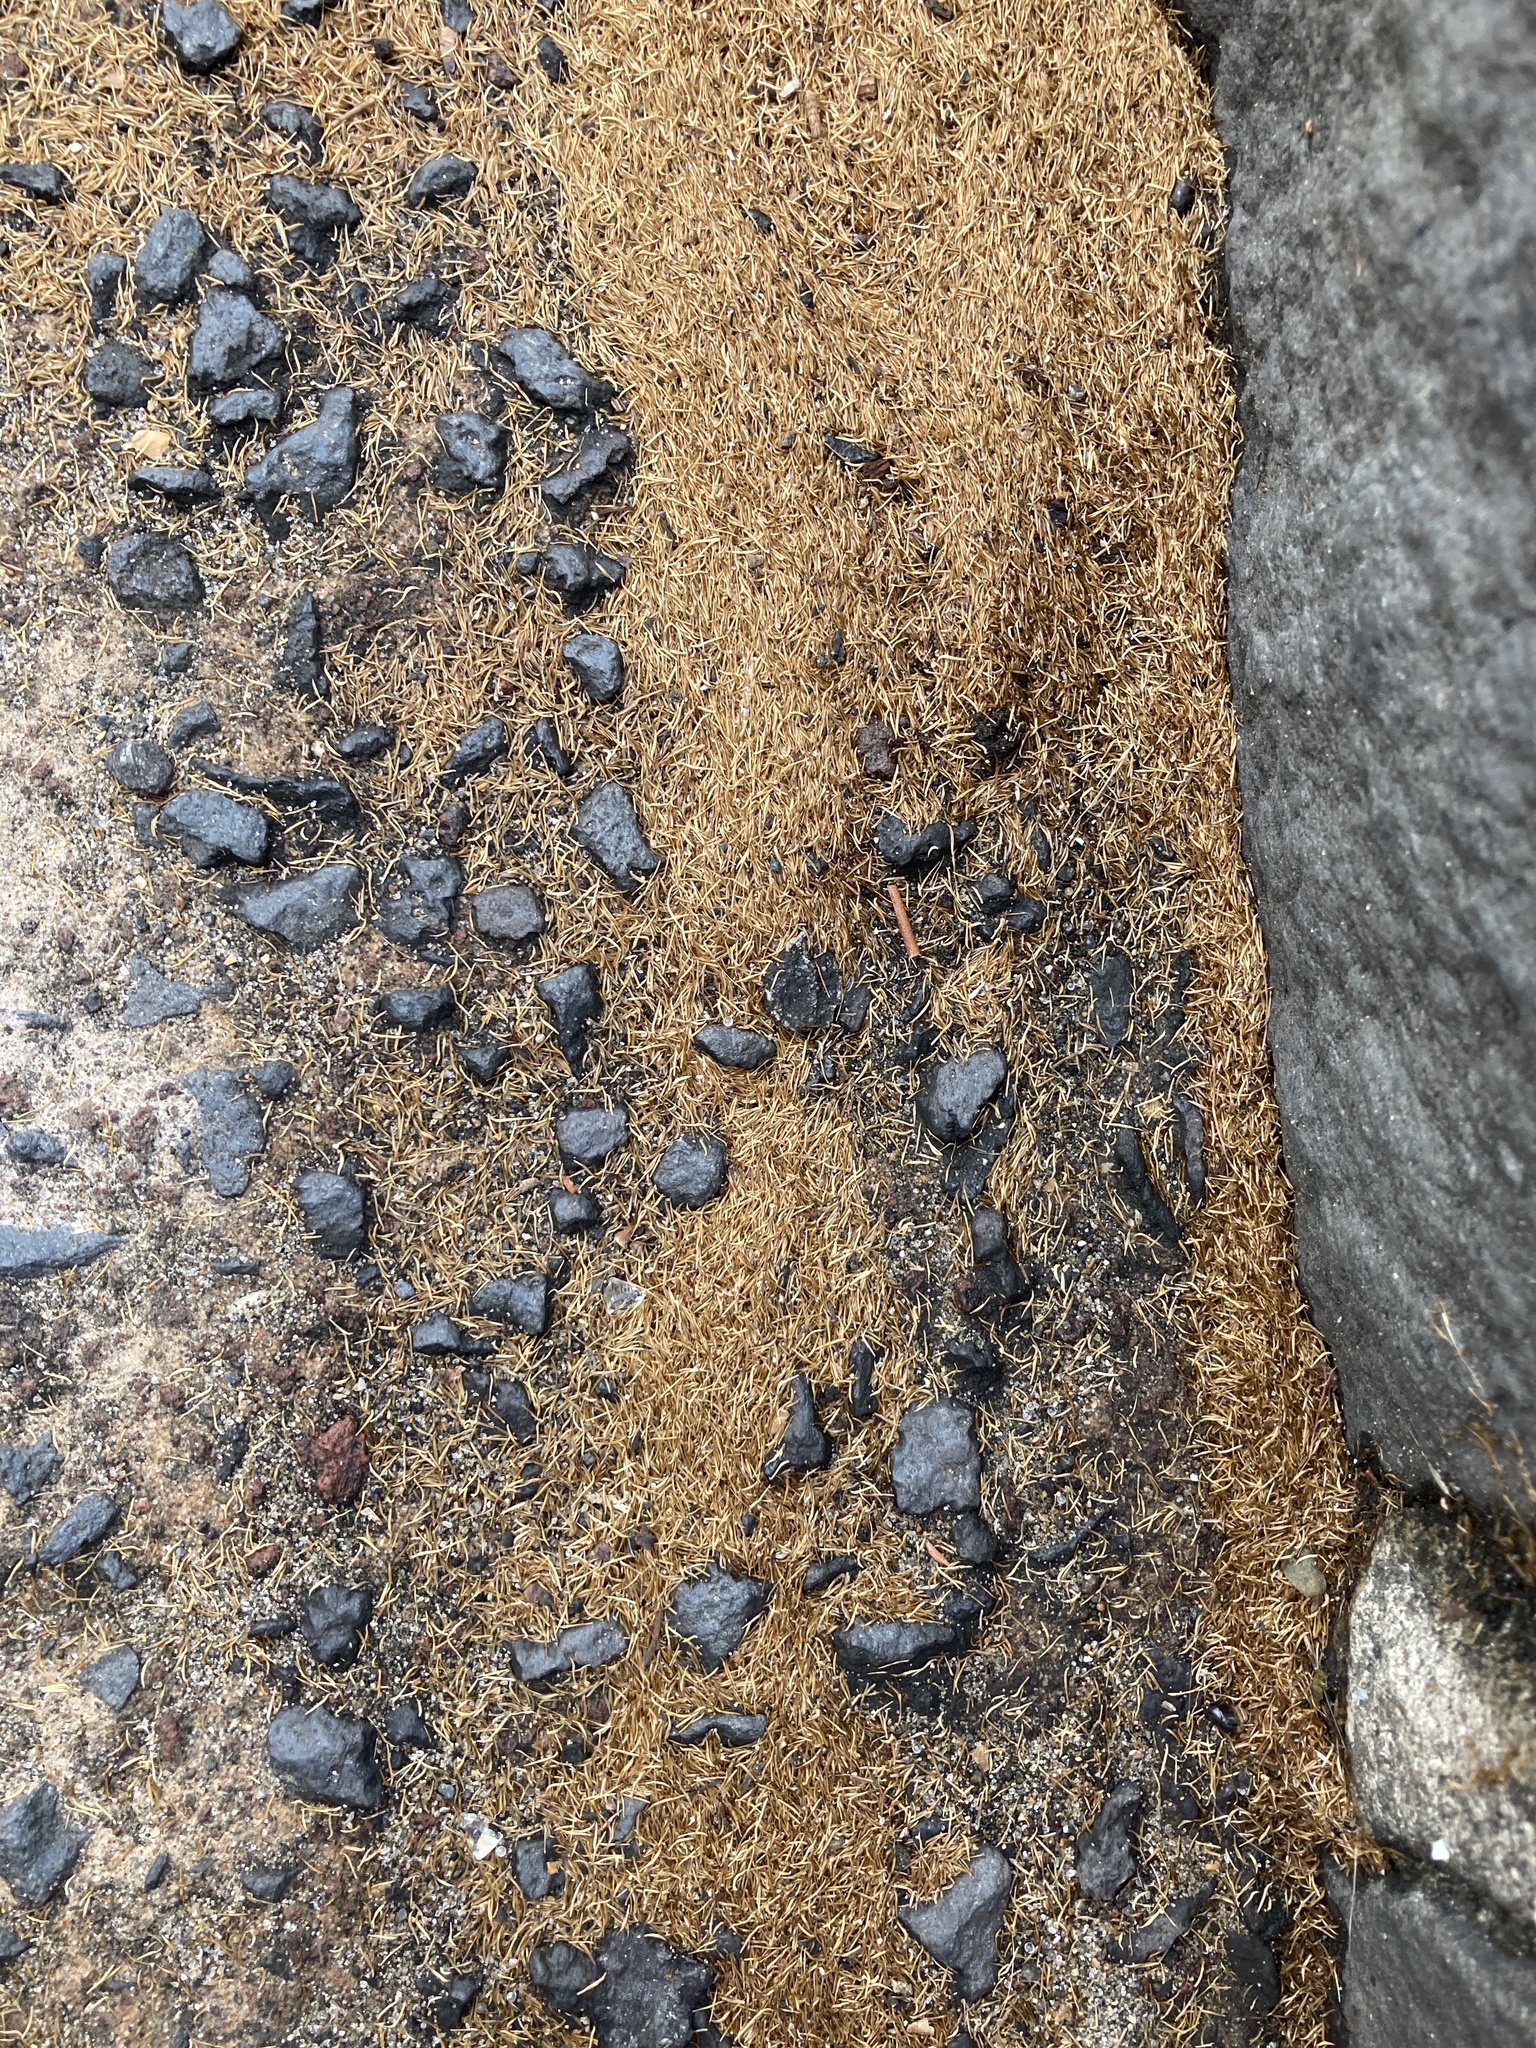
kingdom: Plantae
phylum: Tracheophyta
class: Magnoliopsida
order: Myrtales
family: Myrtaceae
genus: Metrosideros
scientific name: Metrosideros excelsa
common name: New zealand christmastree
